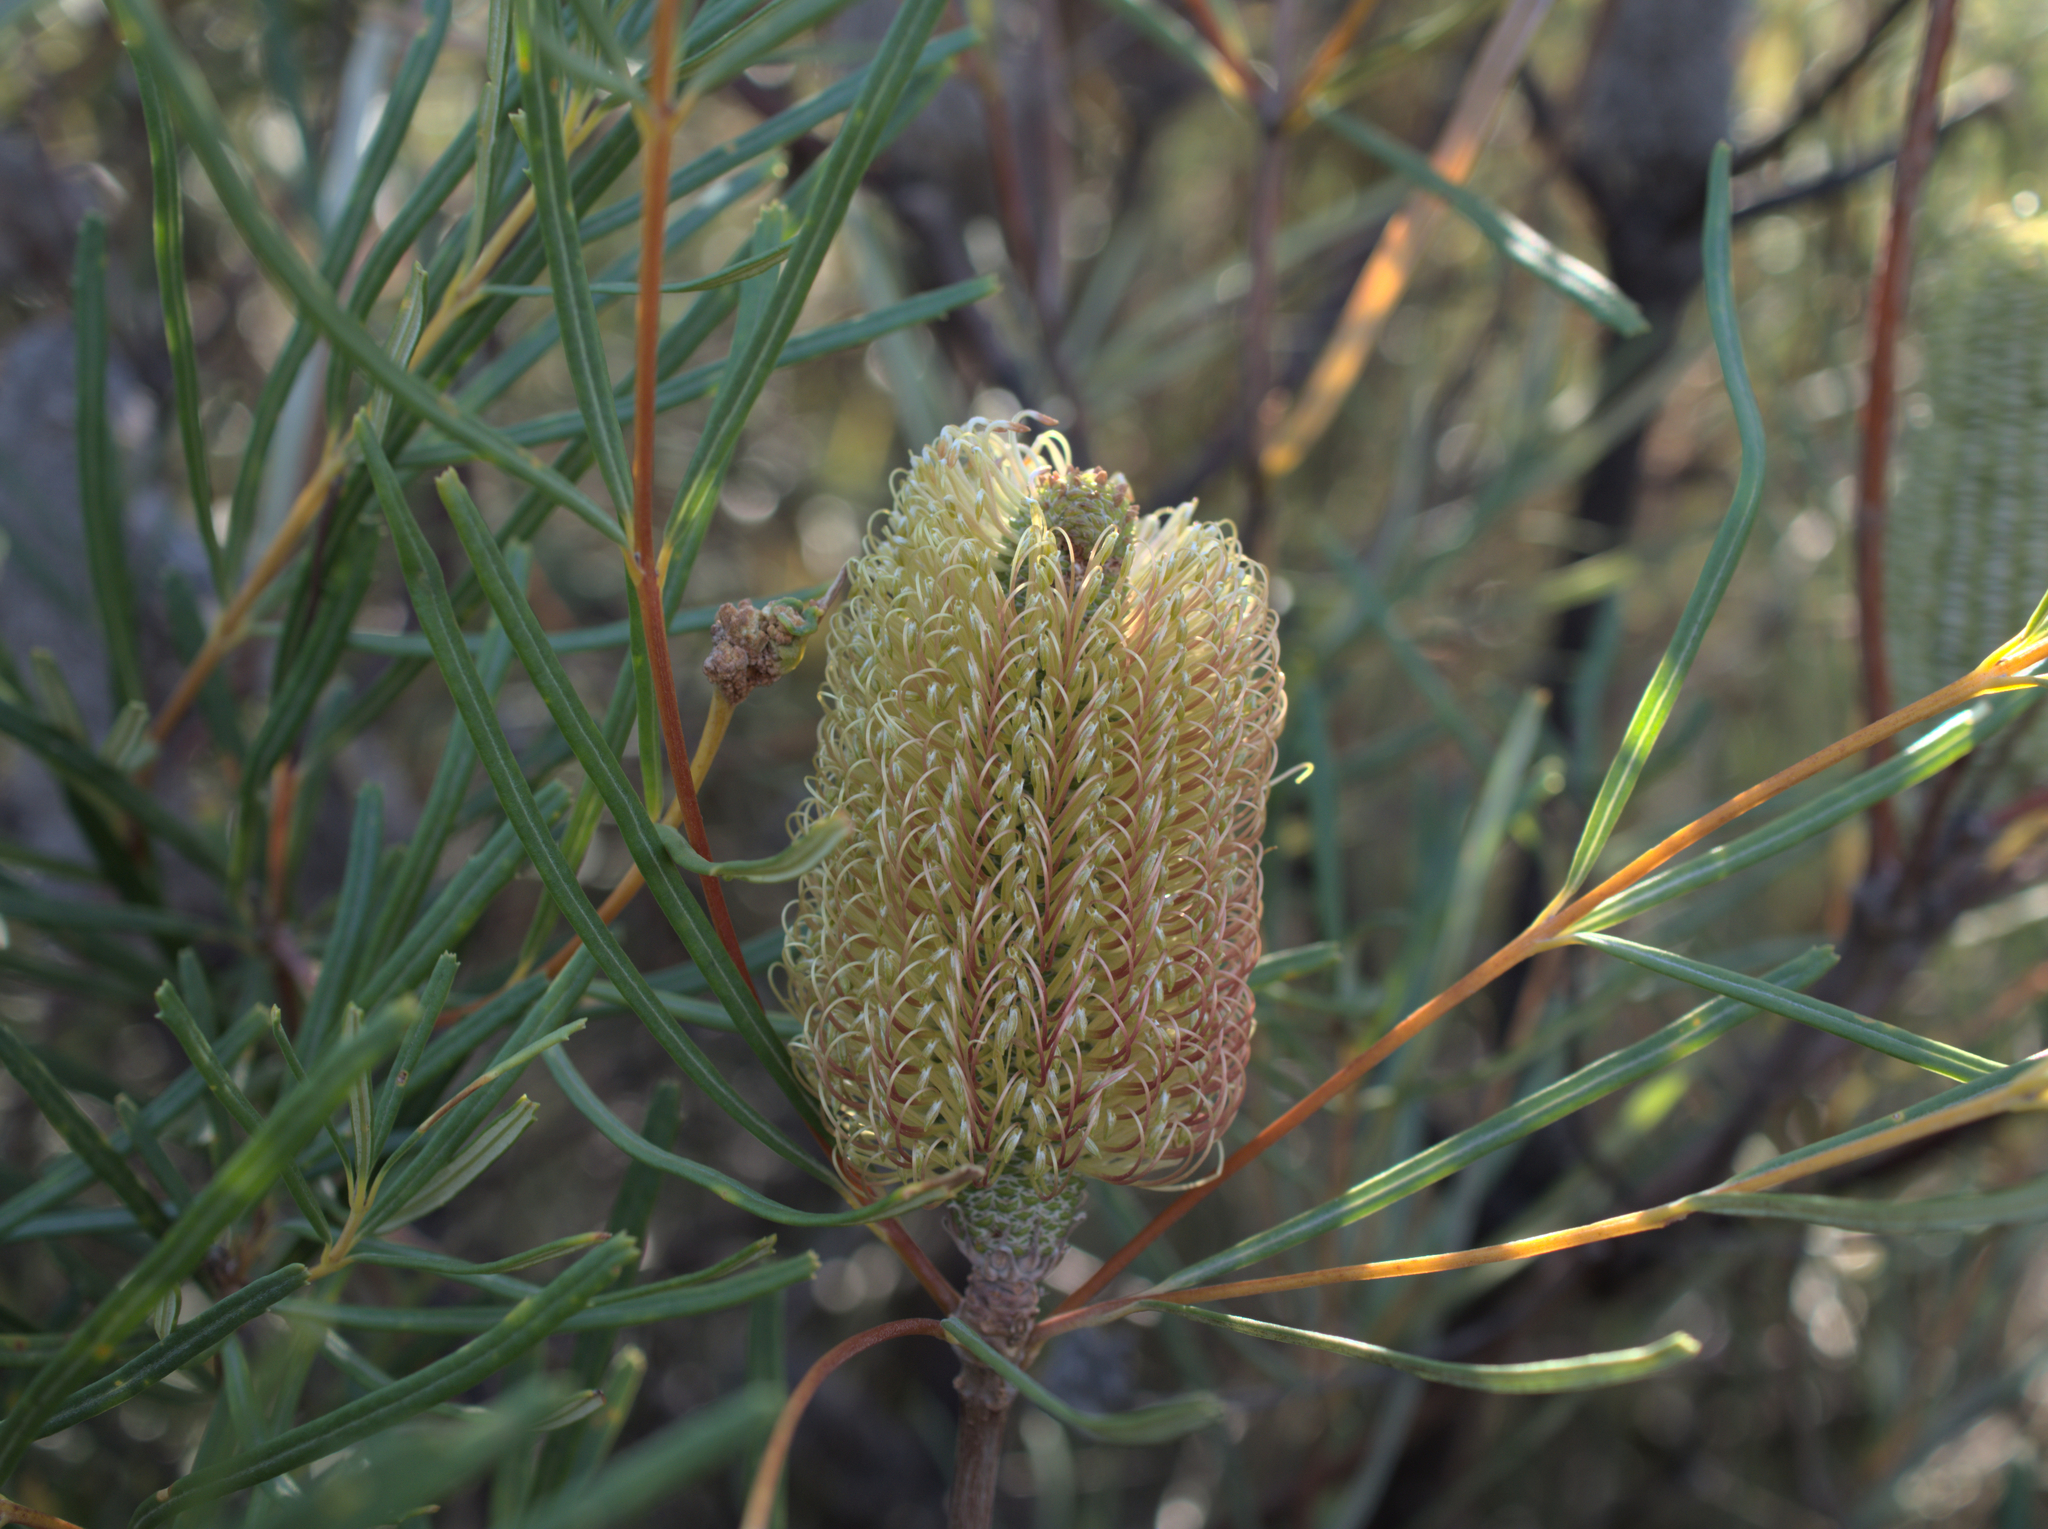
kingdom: Plantae
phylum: Tracheophyta
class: Magnoliopsida
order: Proteales
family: Proteaceae
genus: Banksia
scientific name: Banksia occidentalis
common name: Red swamp banksia
